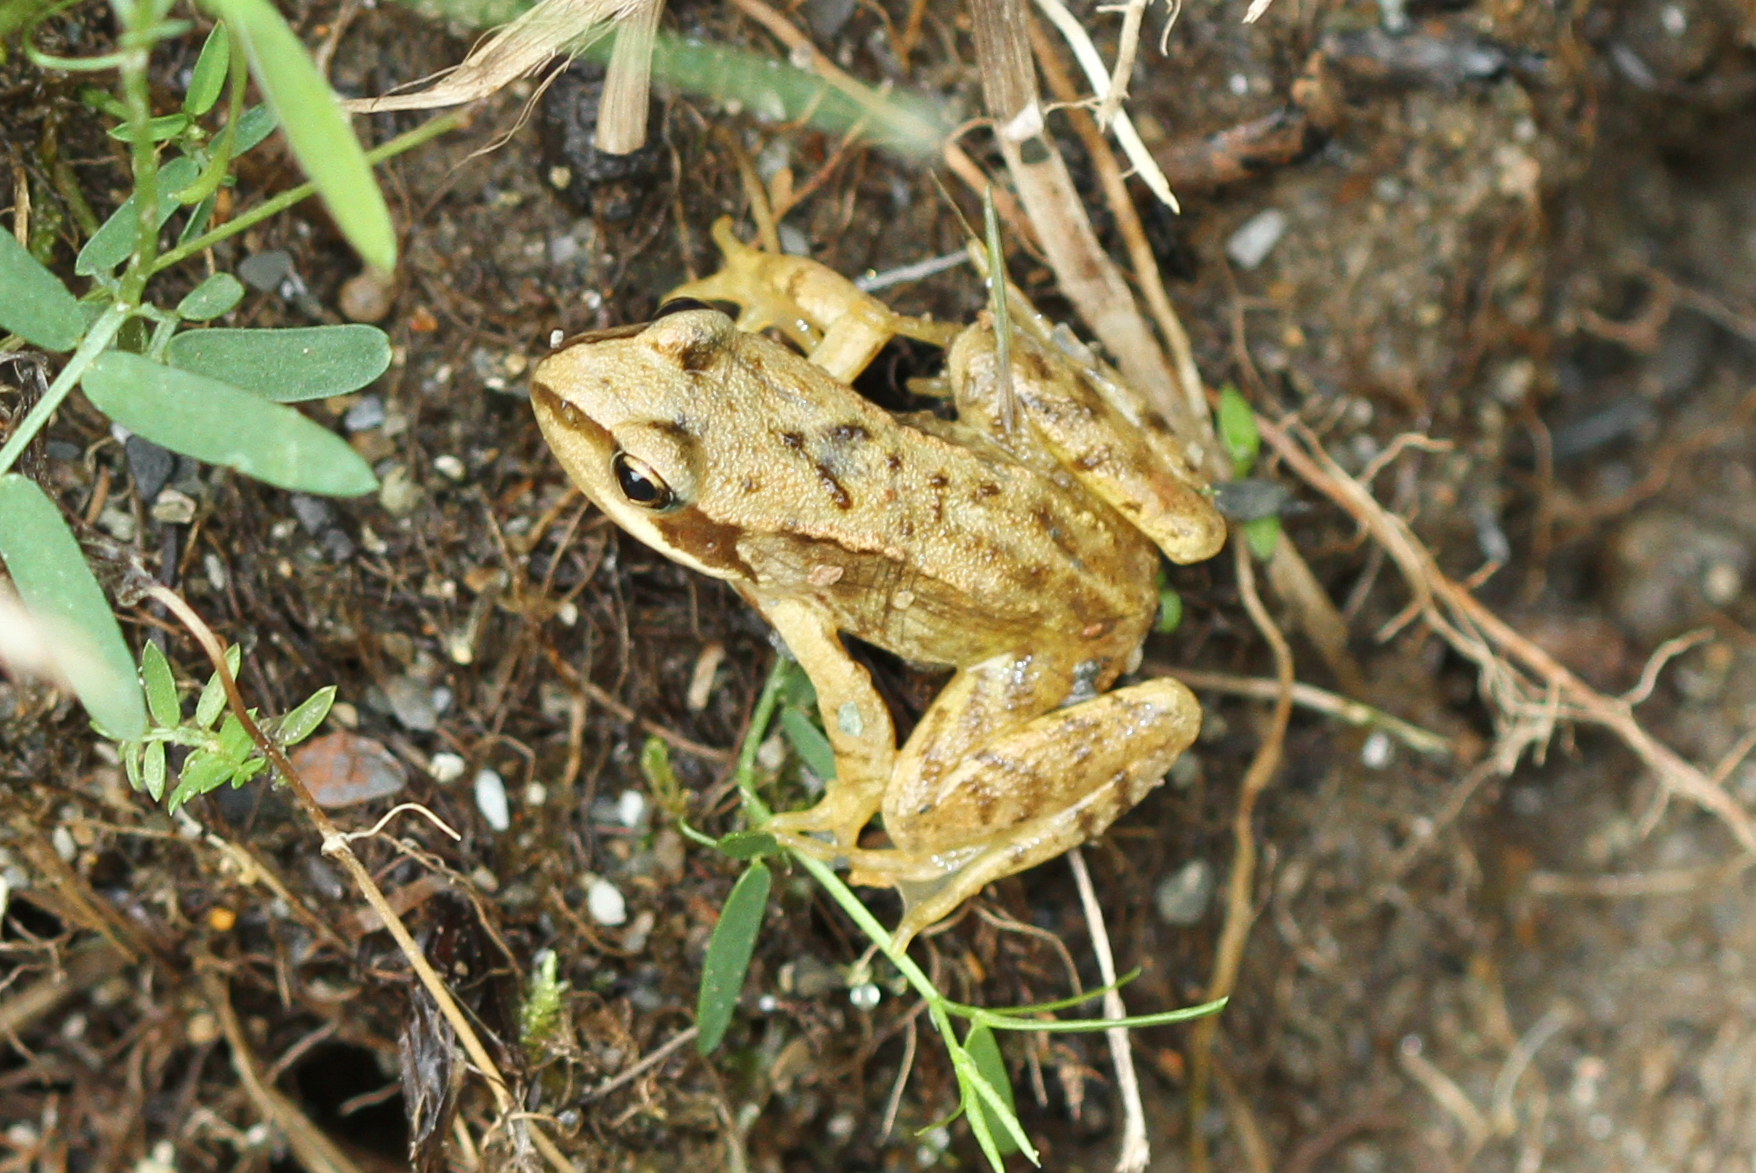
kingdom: Animalia
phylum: Chordata
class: Amphibia
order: Anura
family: Ranidae
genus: Rana
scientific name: Rana temporaria
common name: Common frog
